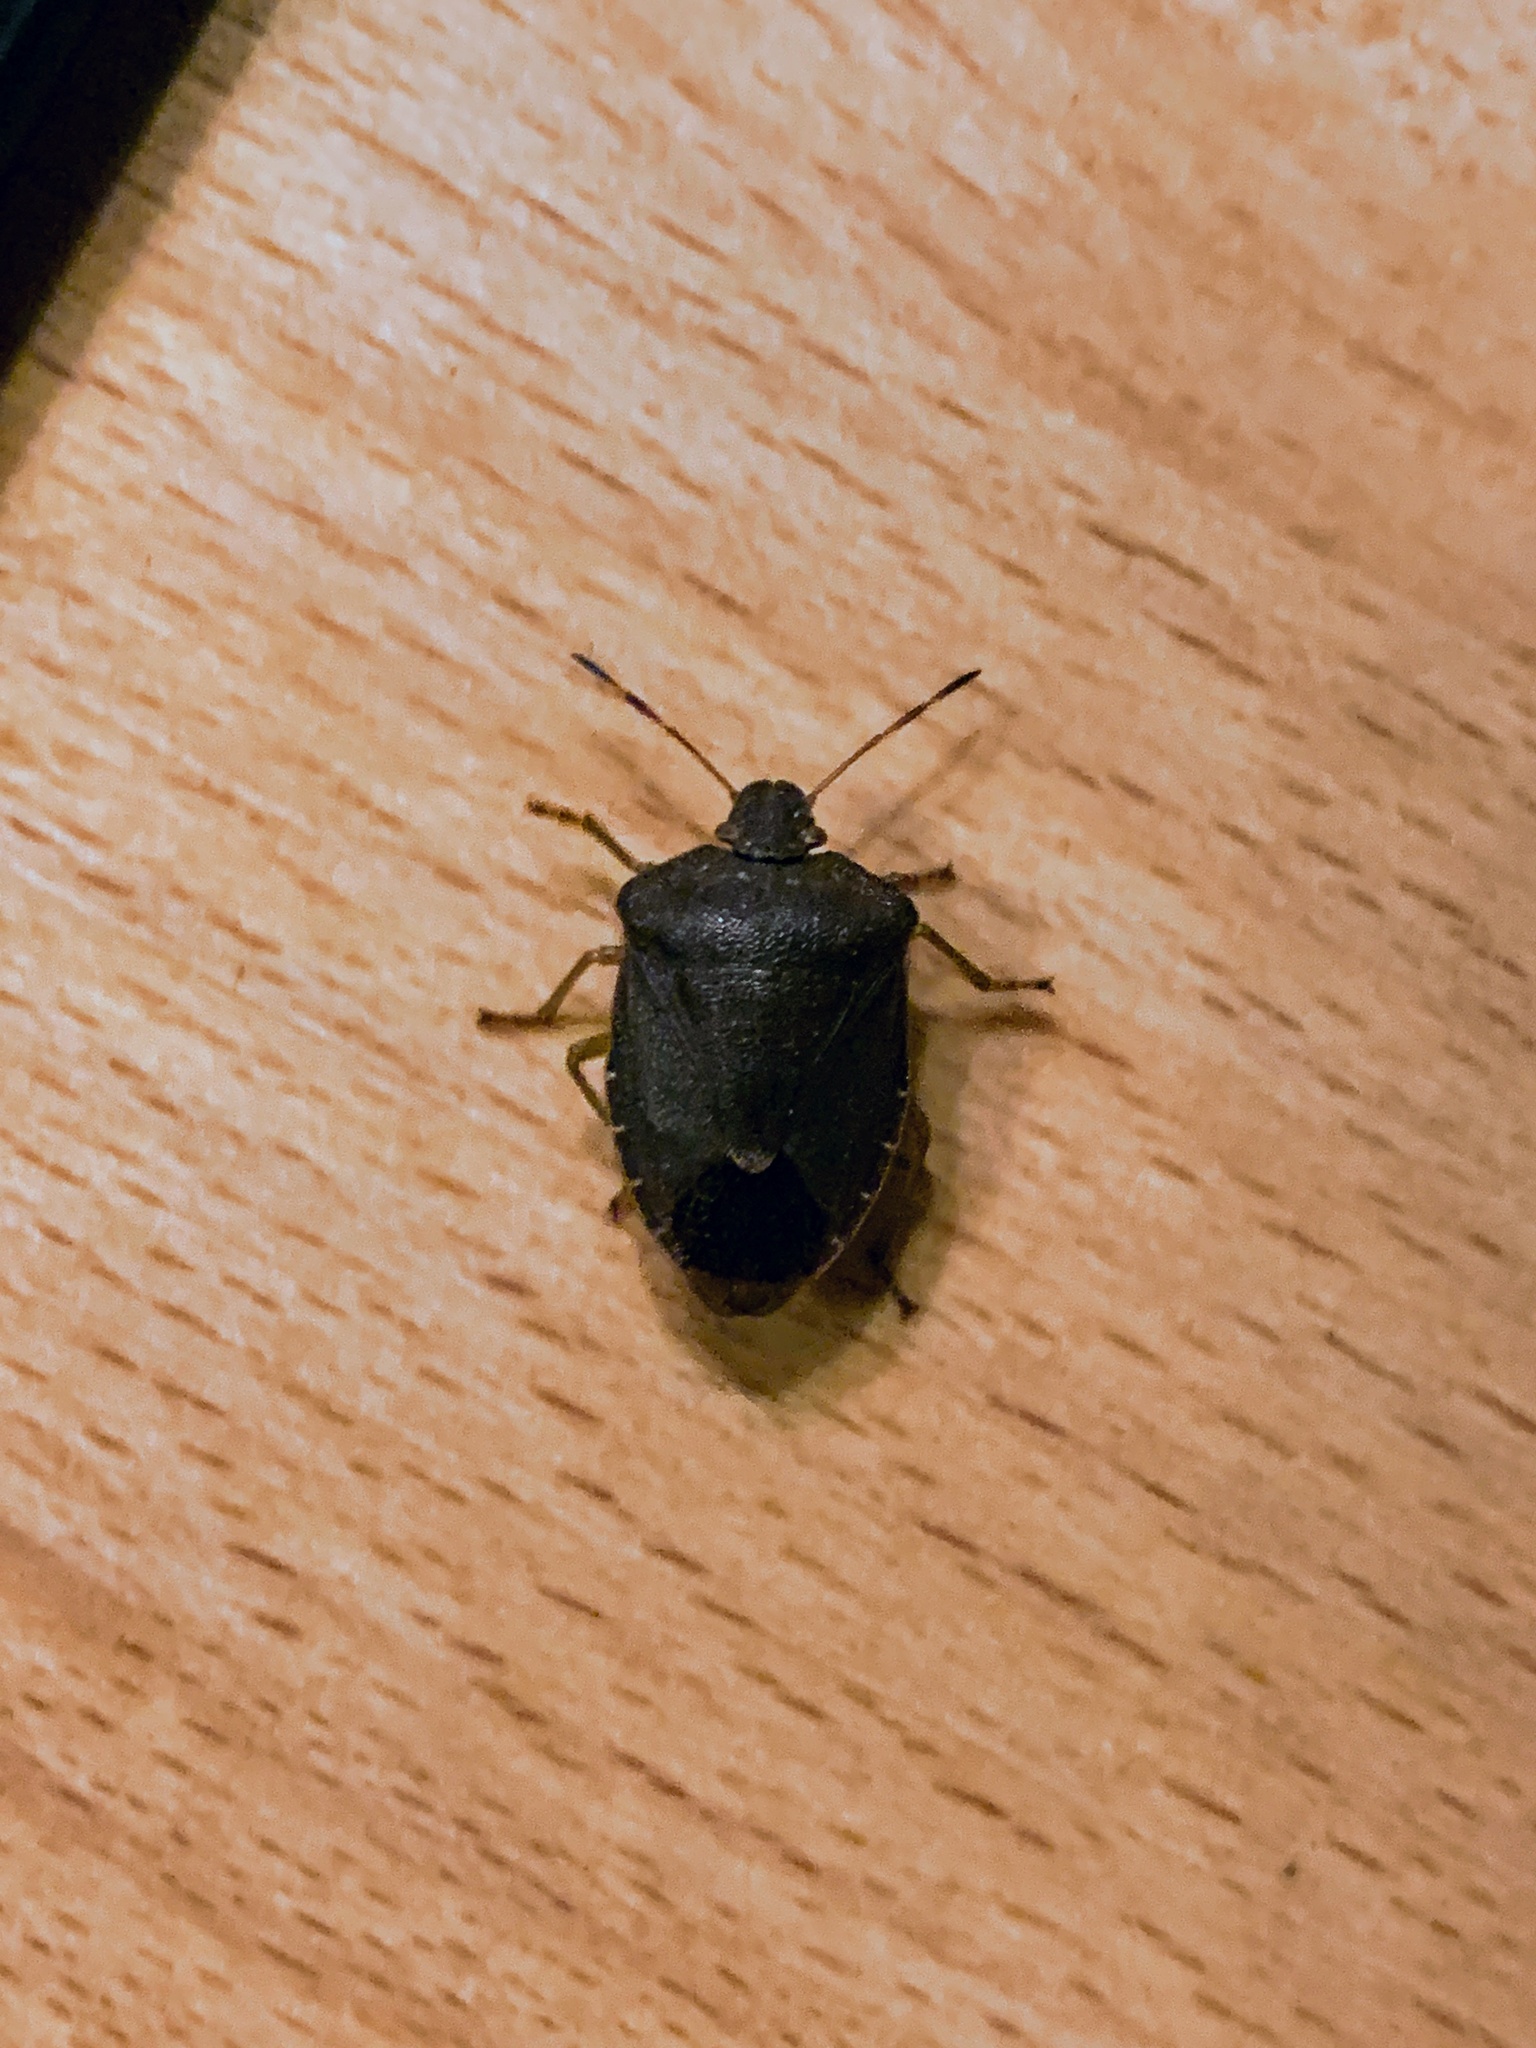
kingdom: Animalia
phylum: Arthropoda
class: Insecta
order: Hemiptera
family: Pentatomidae
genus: Palomena
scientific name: Palomena prasina
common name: Green shieldbug
